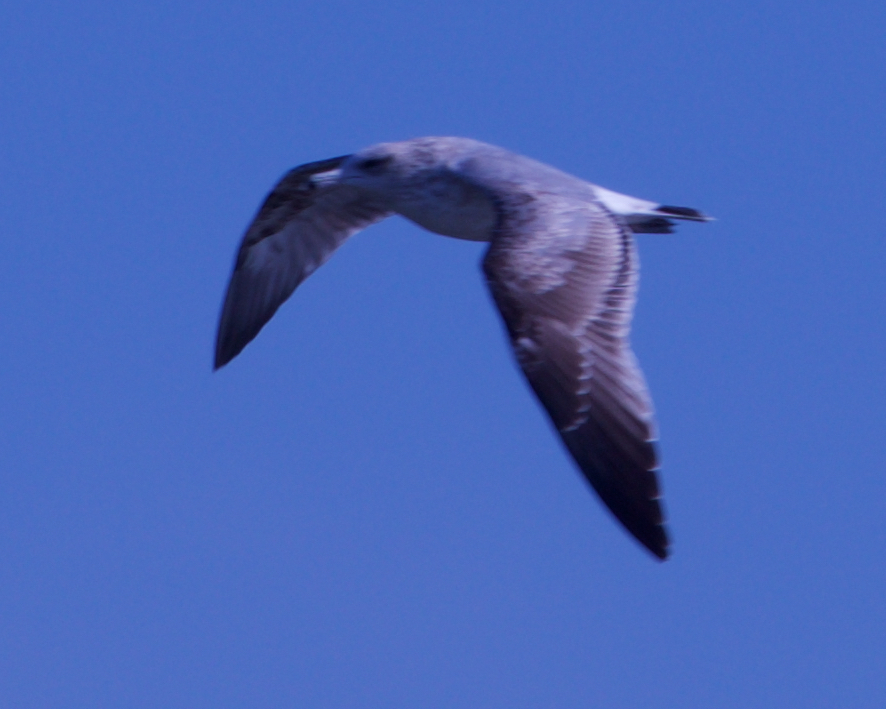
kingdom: Animalia
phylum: Chordata
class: Aves
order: Charadriiformes
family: Laridae
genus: Larus
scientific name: Larus californicus
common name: California gull
